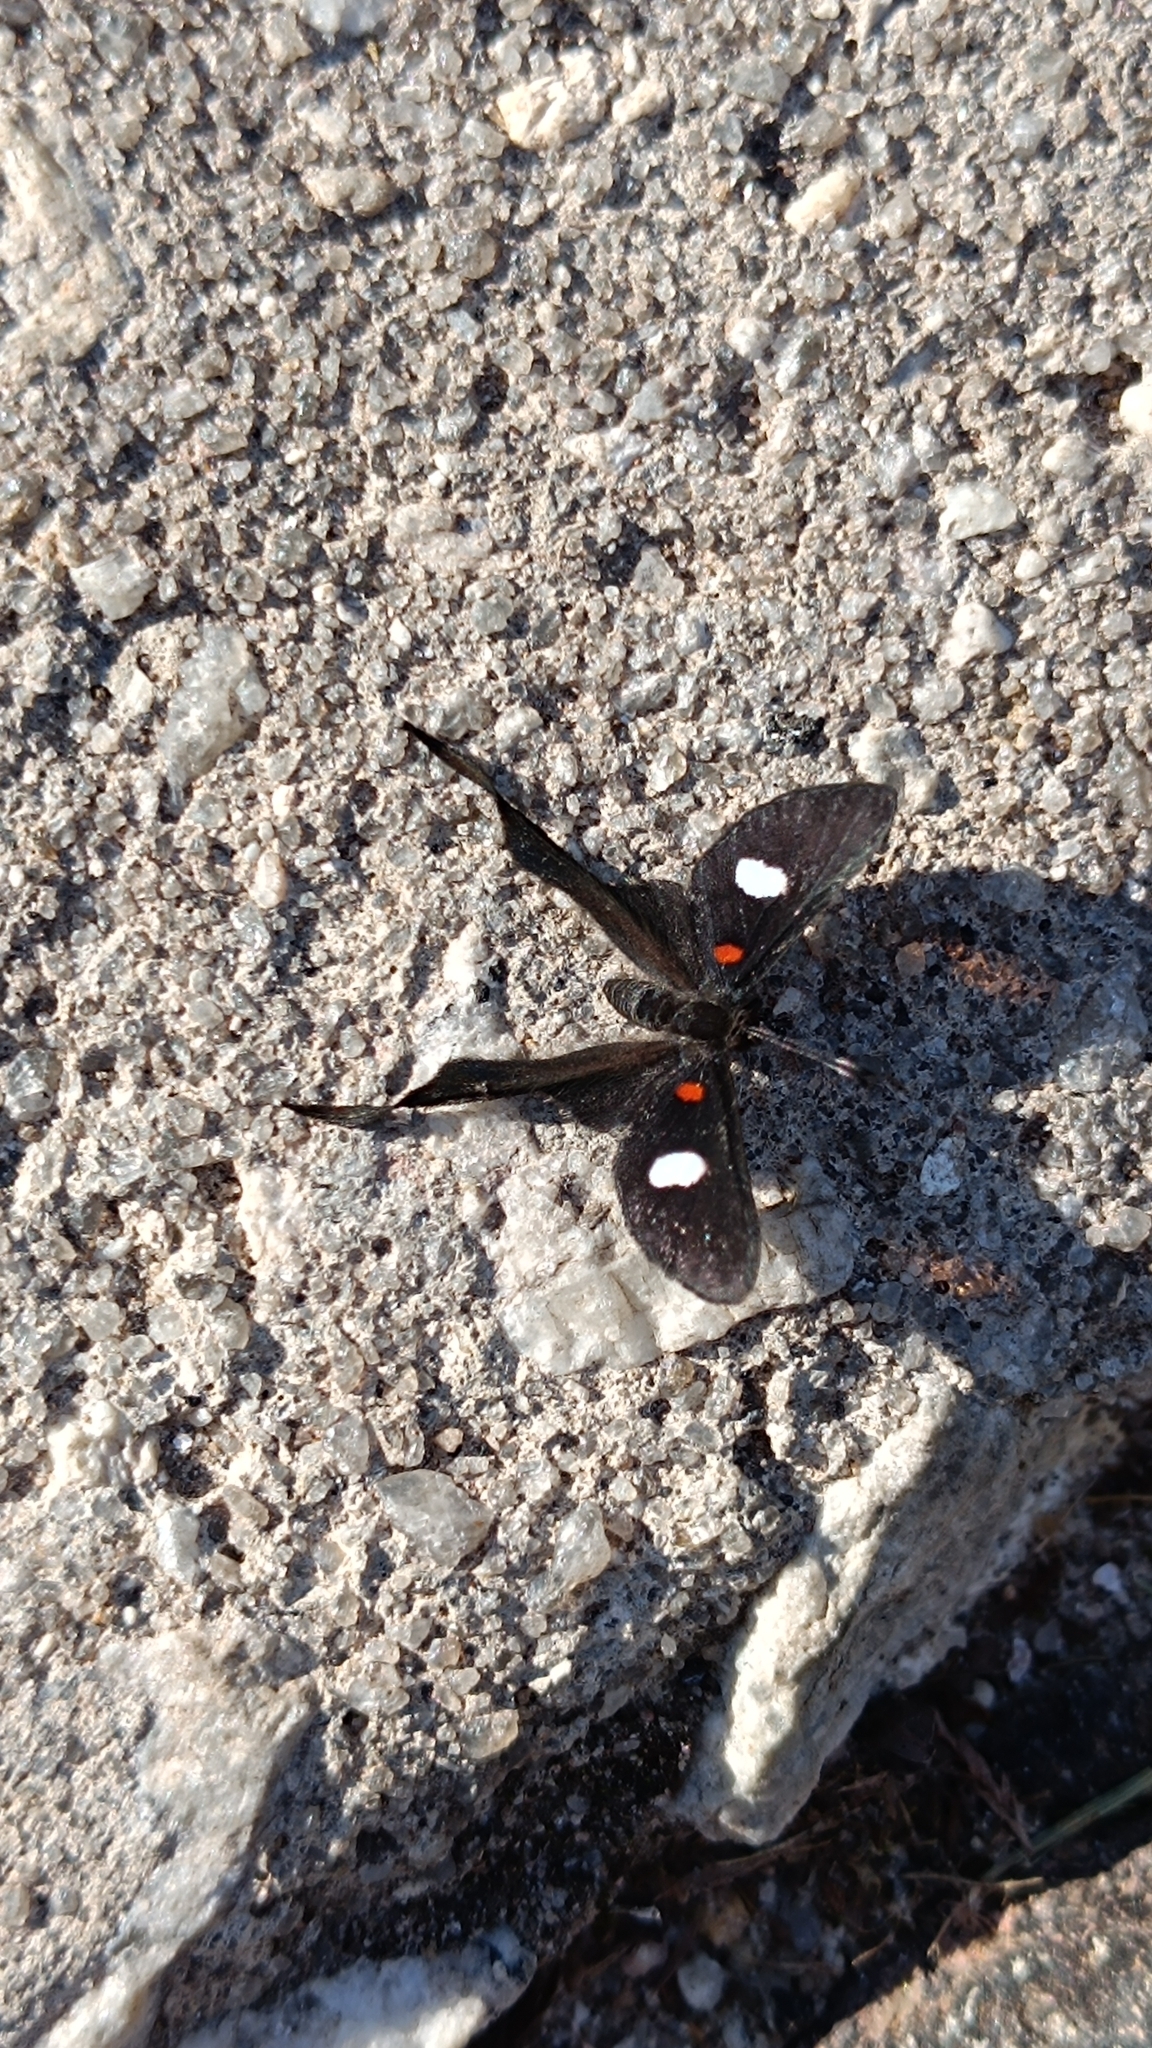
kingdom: Animalia
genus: Syrmatia
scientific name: Syrmatia nyx
